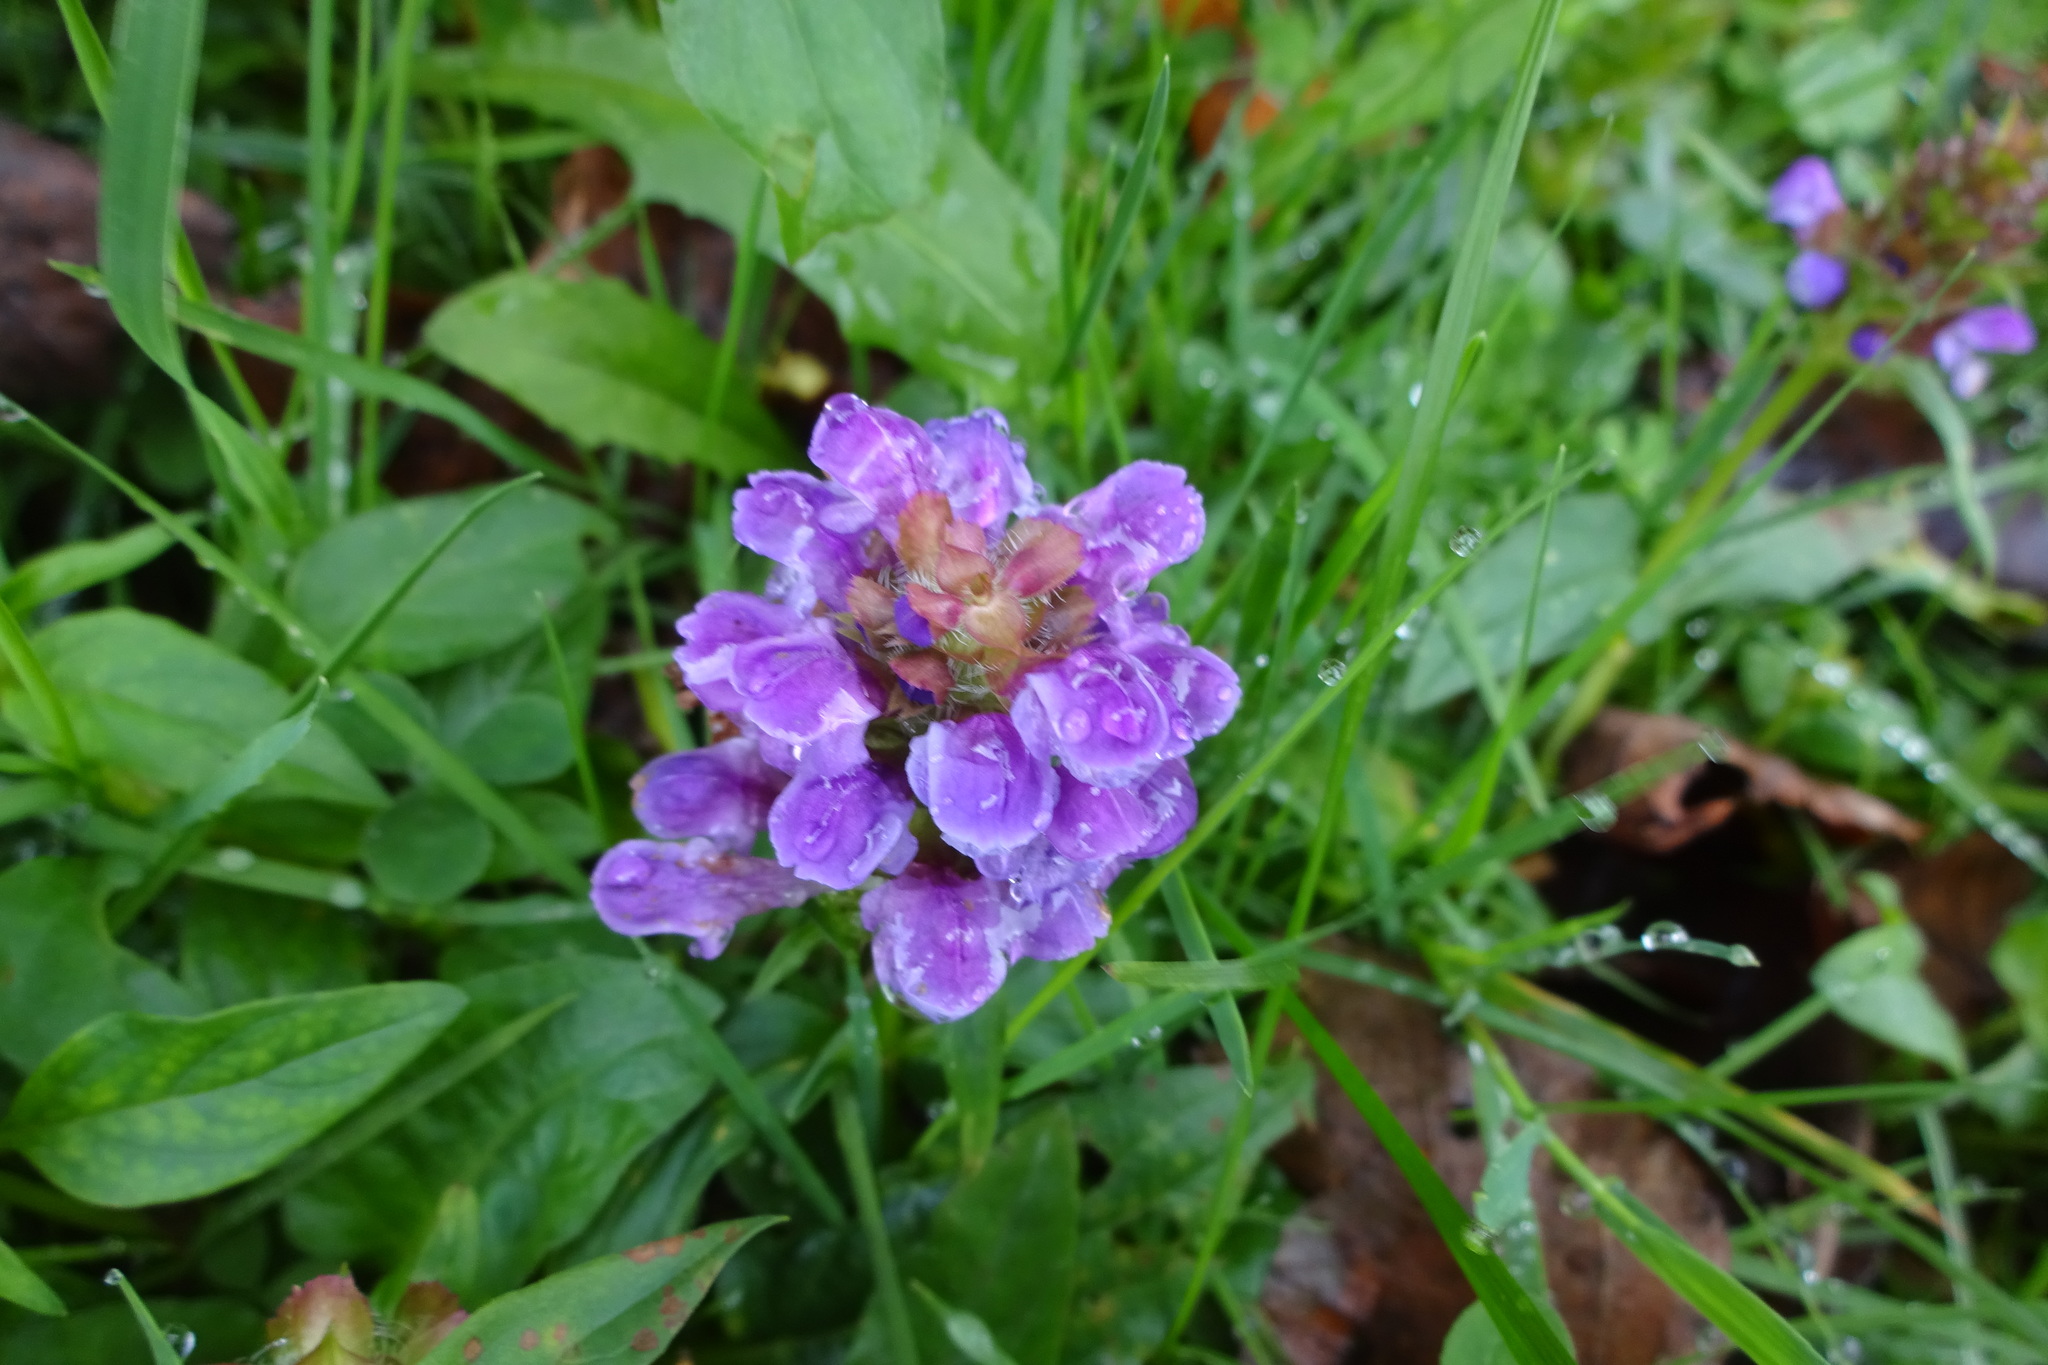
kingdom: Plantae
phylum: Tracheophyta
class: Magnoliopsida
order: Lamiales
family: Lamiaceae
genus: Prunella
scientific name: Prunella vulgaris
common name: Heal-all
